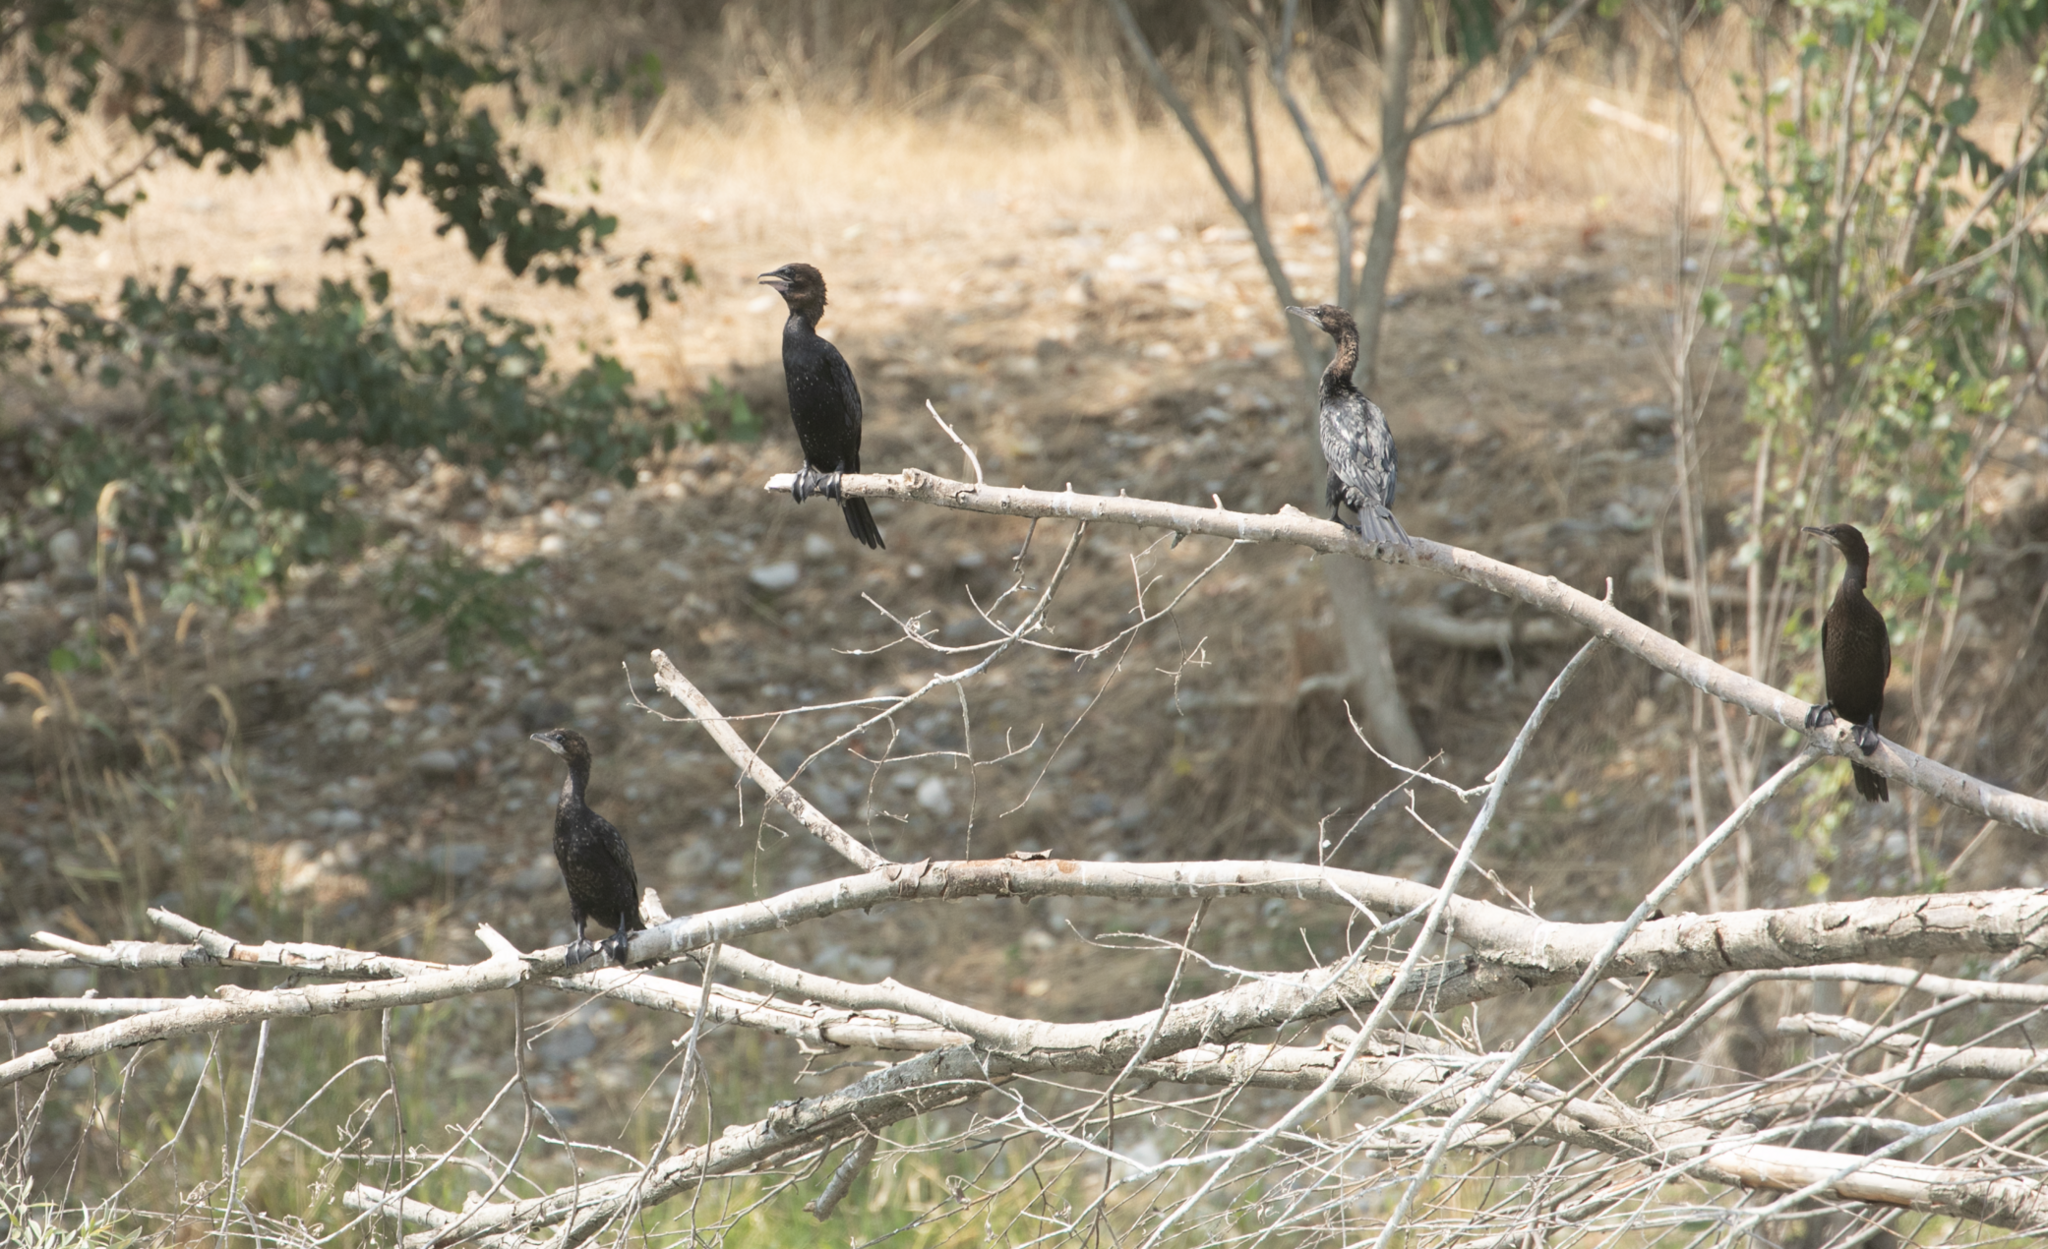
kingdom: Animalia
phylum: Chordata
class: Aves
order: Suliformes
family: Phalacrocoracidae
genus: Microcarbo
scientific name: Microcarbo pygmaeus
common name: Pygmy cormorant
